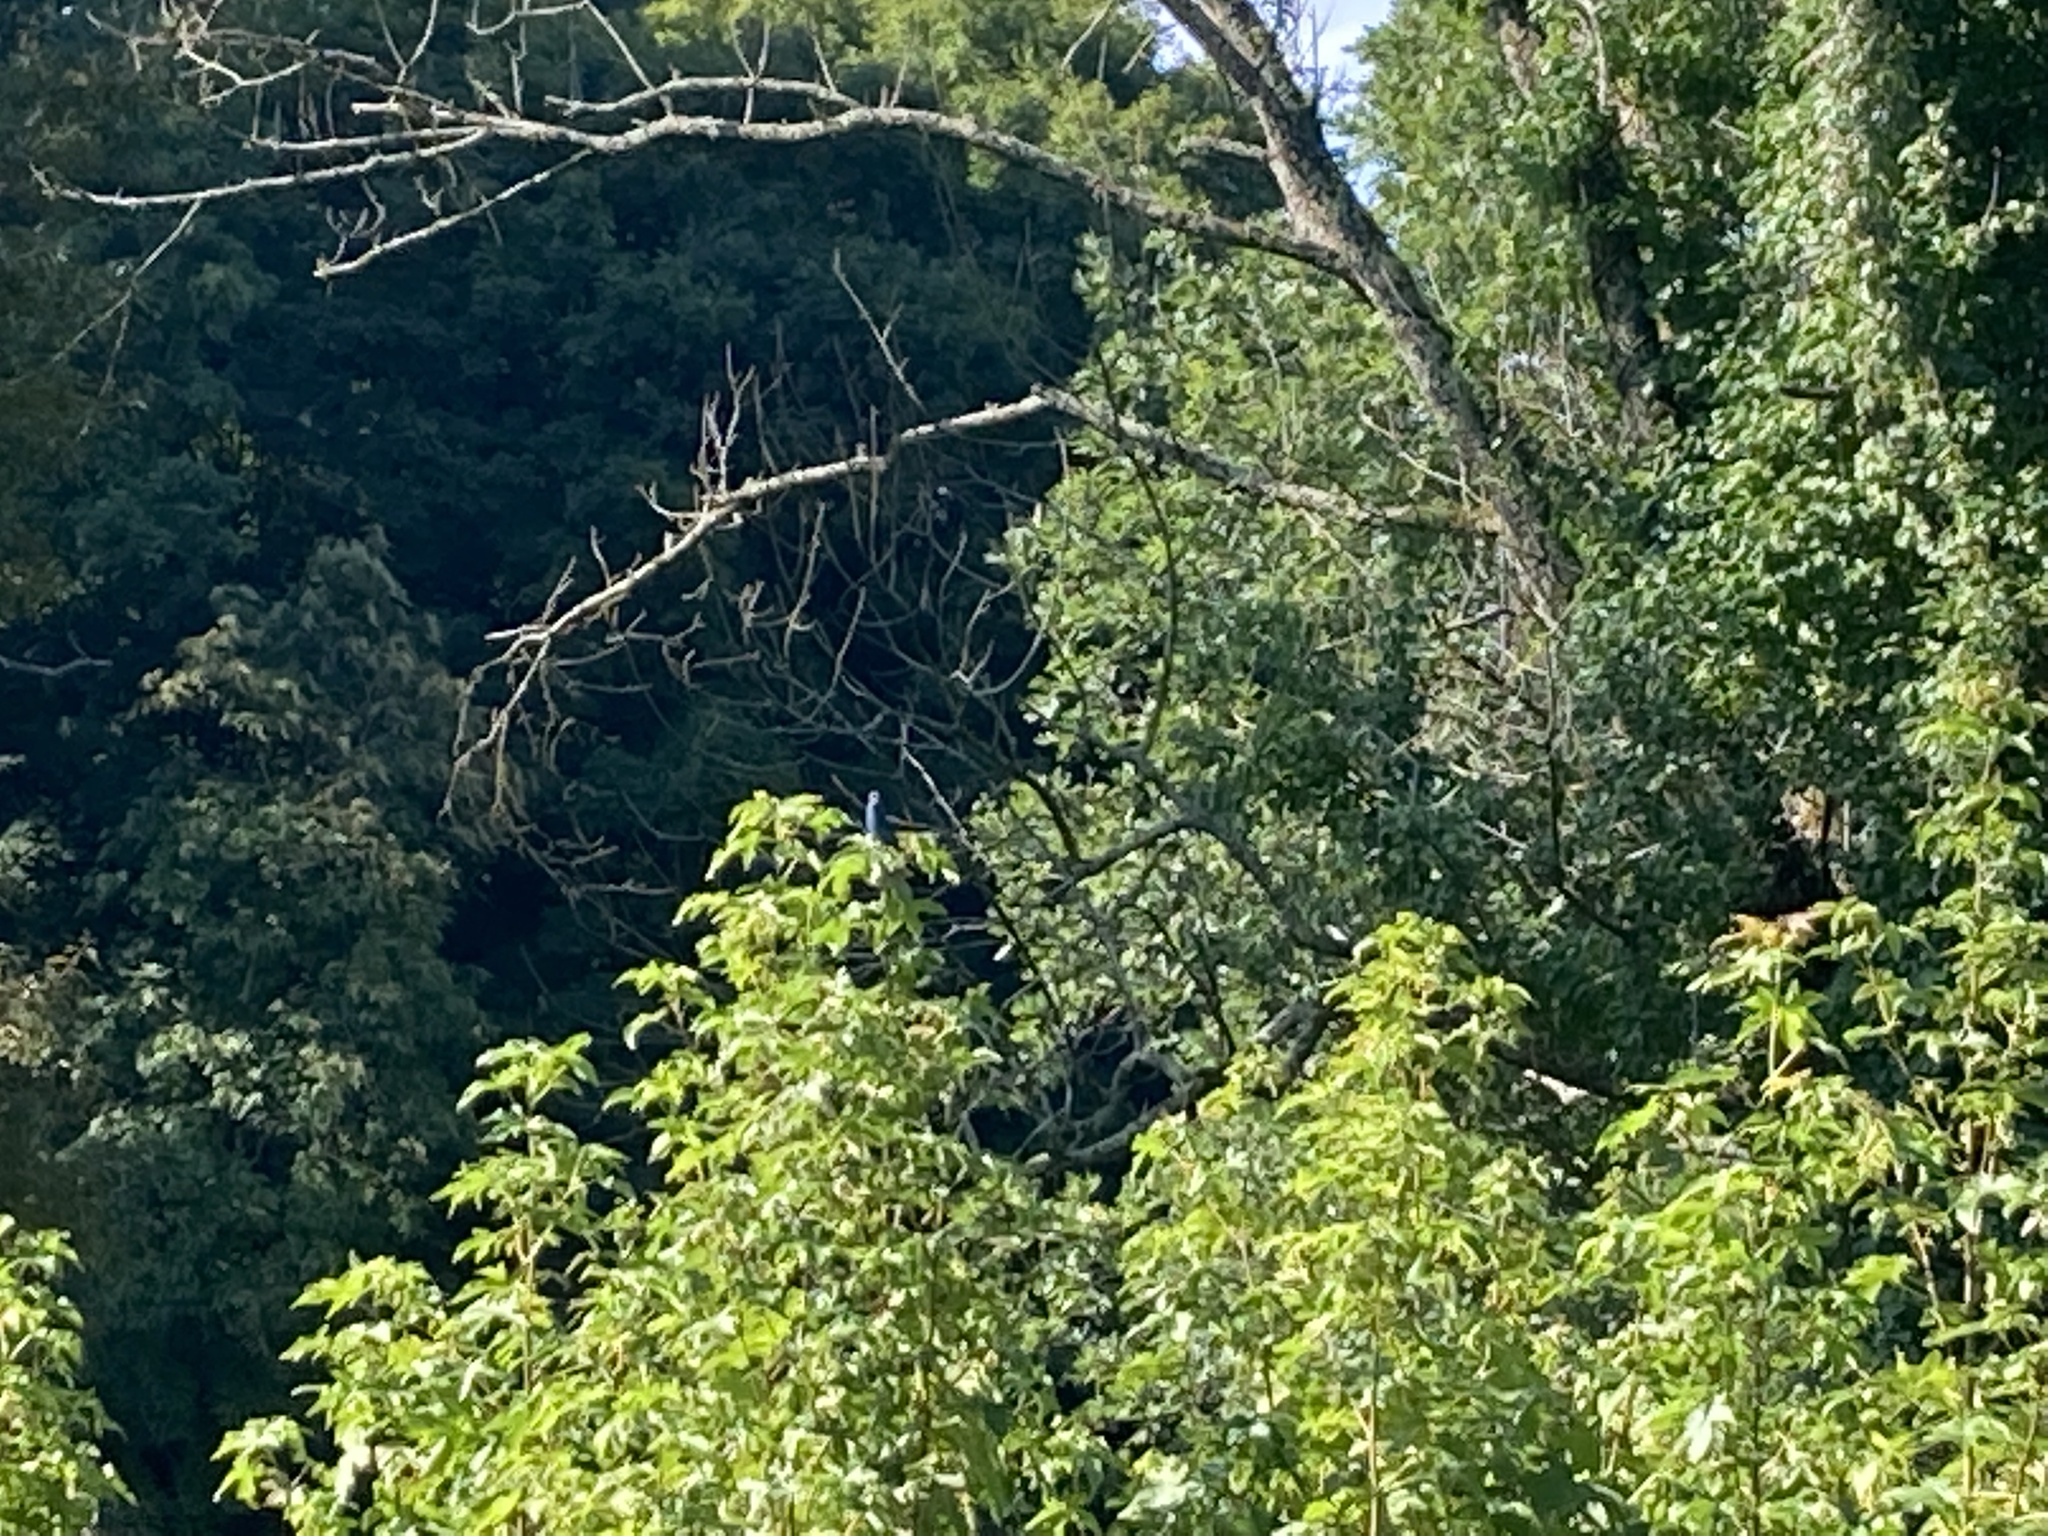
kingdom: Animalia
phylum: Chordata
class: Aves
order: Passeriformes
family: Cardinalidae
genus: Passerina
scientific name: Passerina cyanea
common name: Indigo bunting
